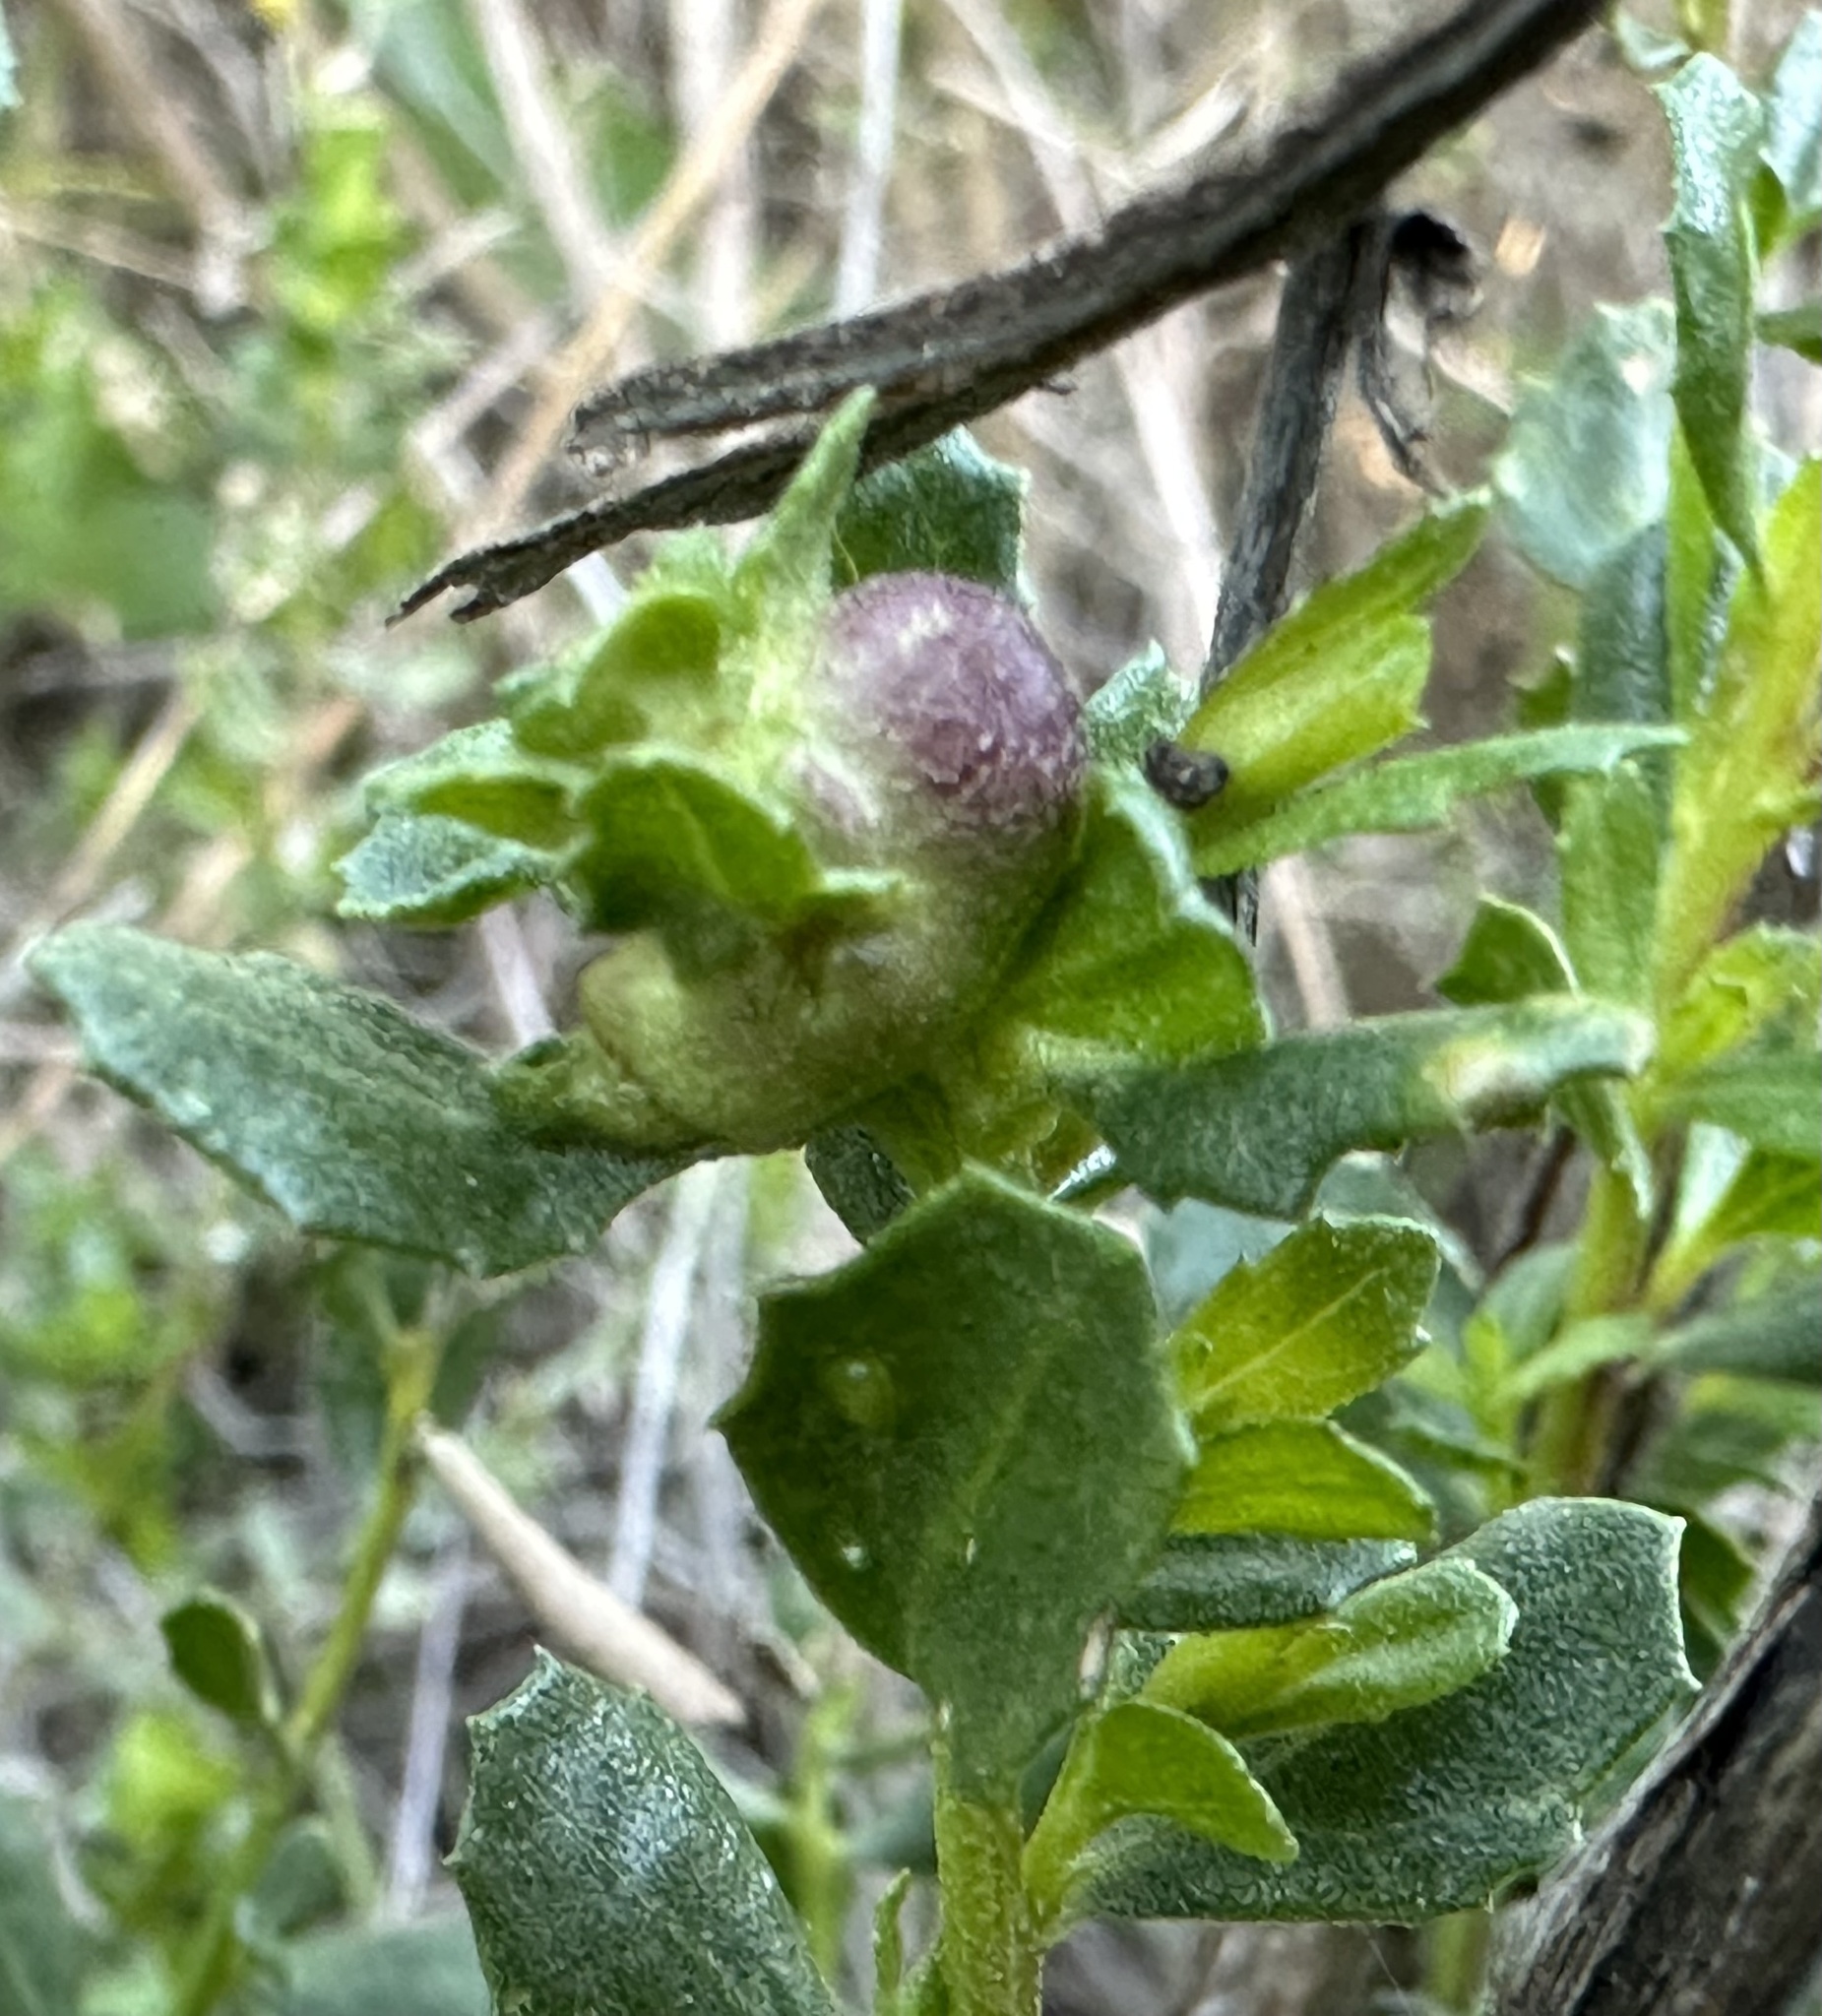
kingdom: Animalia
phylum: Arthropoda
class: Insecta
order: Diptera
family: Cecidomyiidae
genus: Rhopalomyia
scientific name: Rhopalomyia californica
